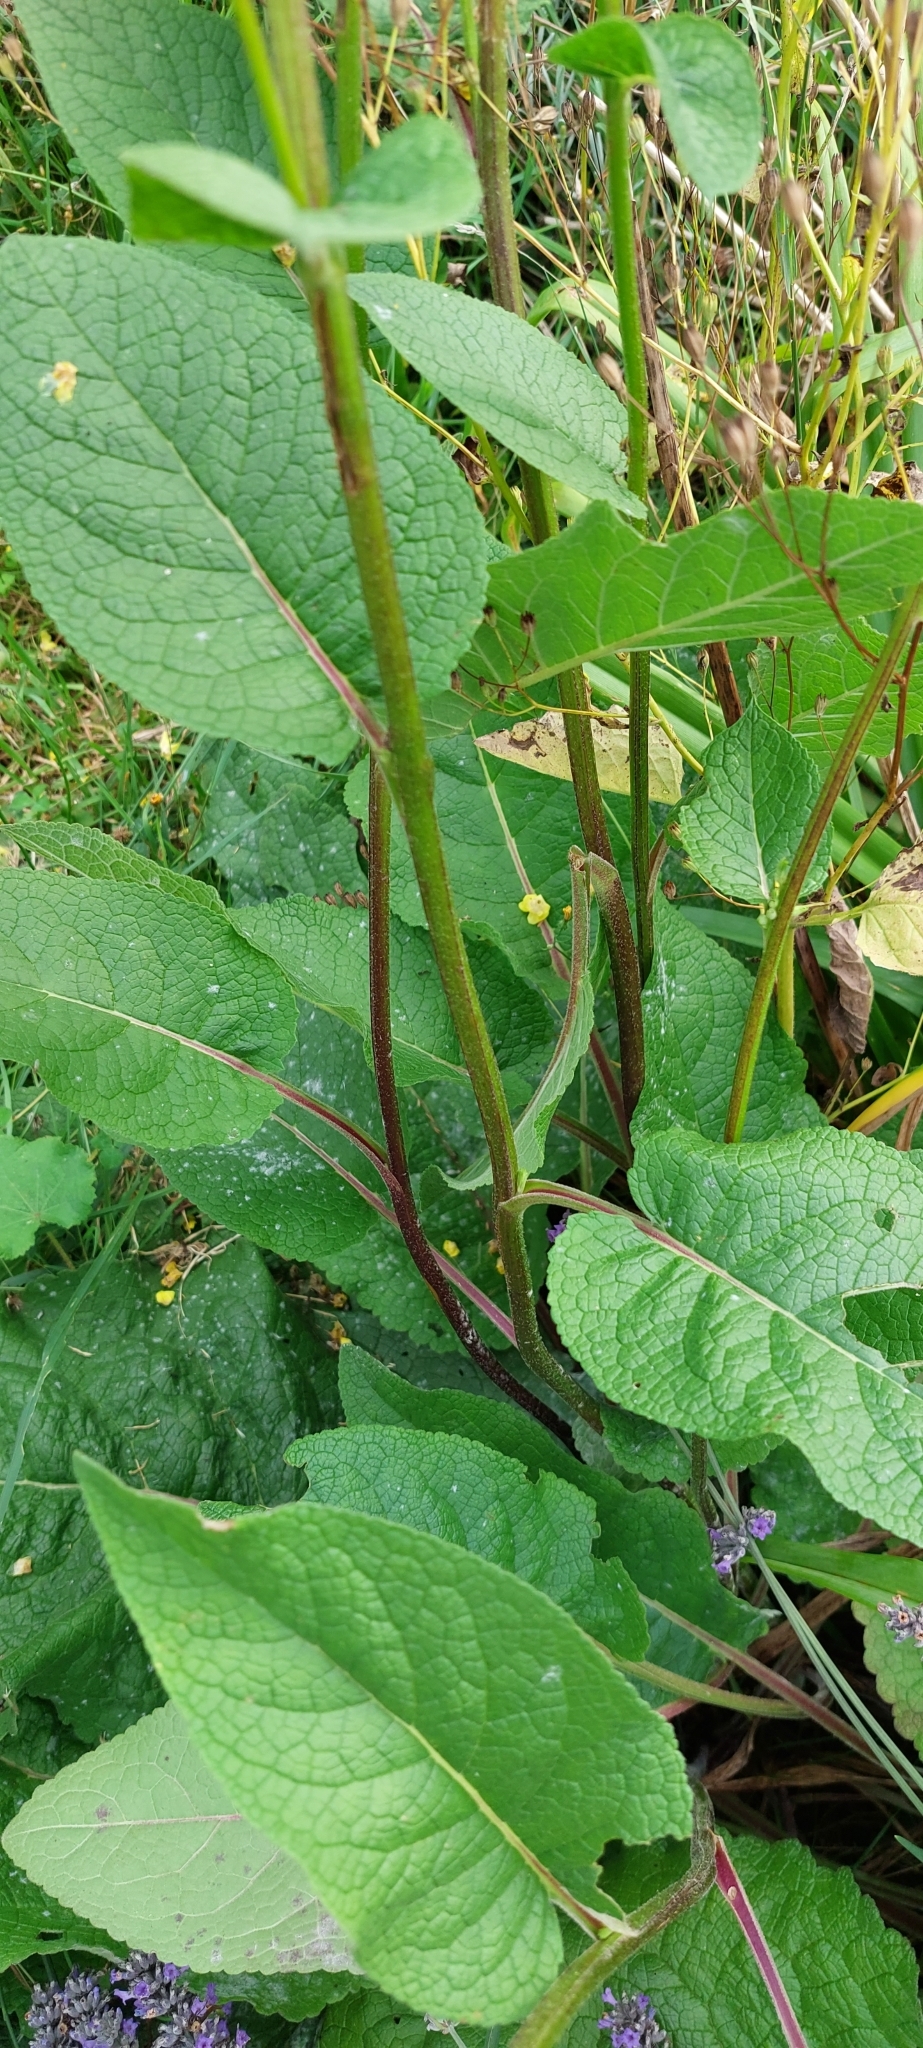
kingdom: Plantae
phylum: Tracheophyta
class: Magnoliopsida
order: Lamiales
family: Scrophulariaceae
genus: Verbascum
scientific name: Verbascum nigrum
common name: Dark mullein
